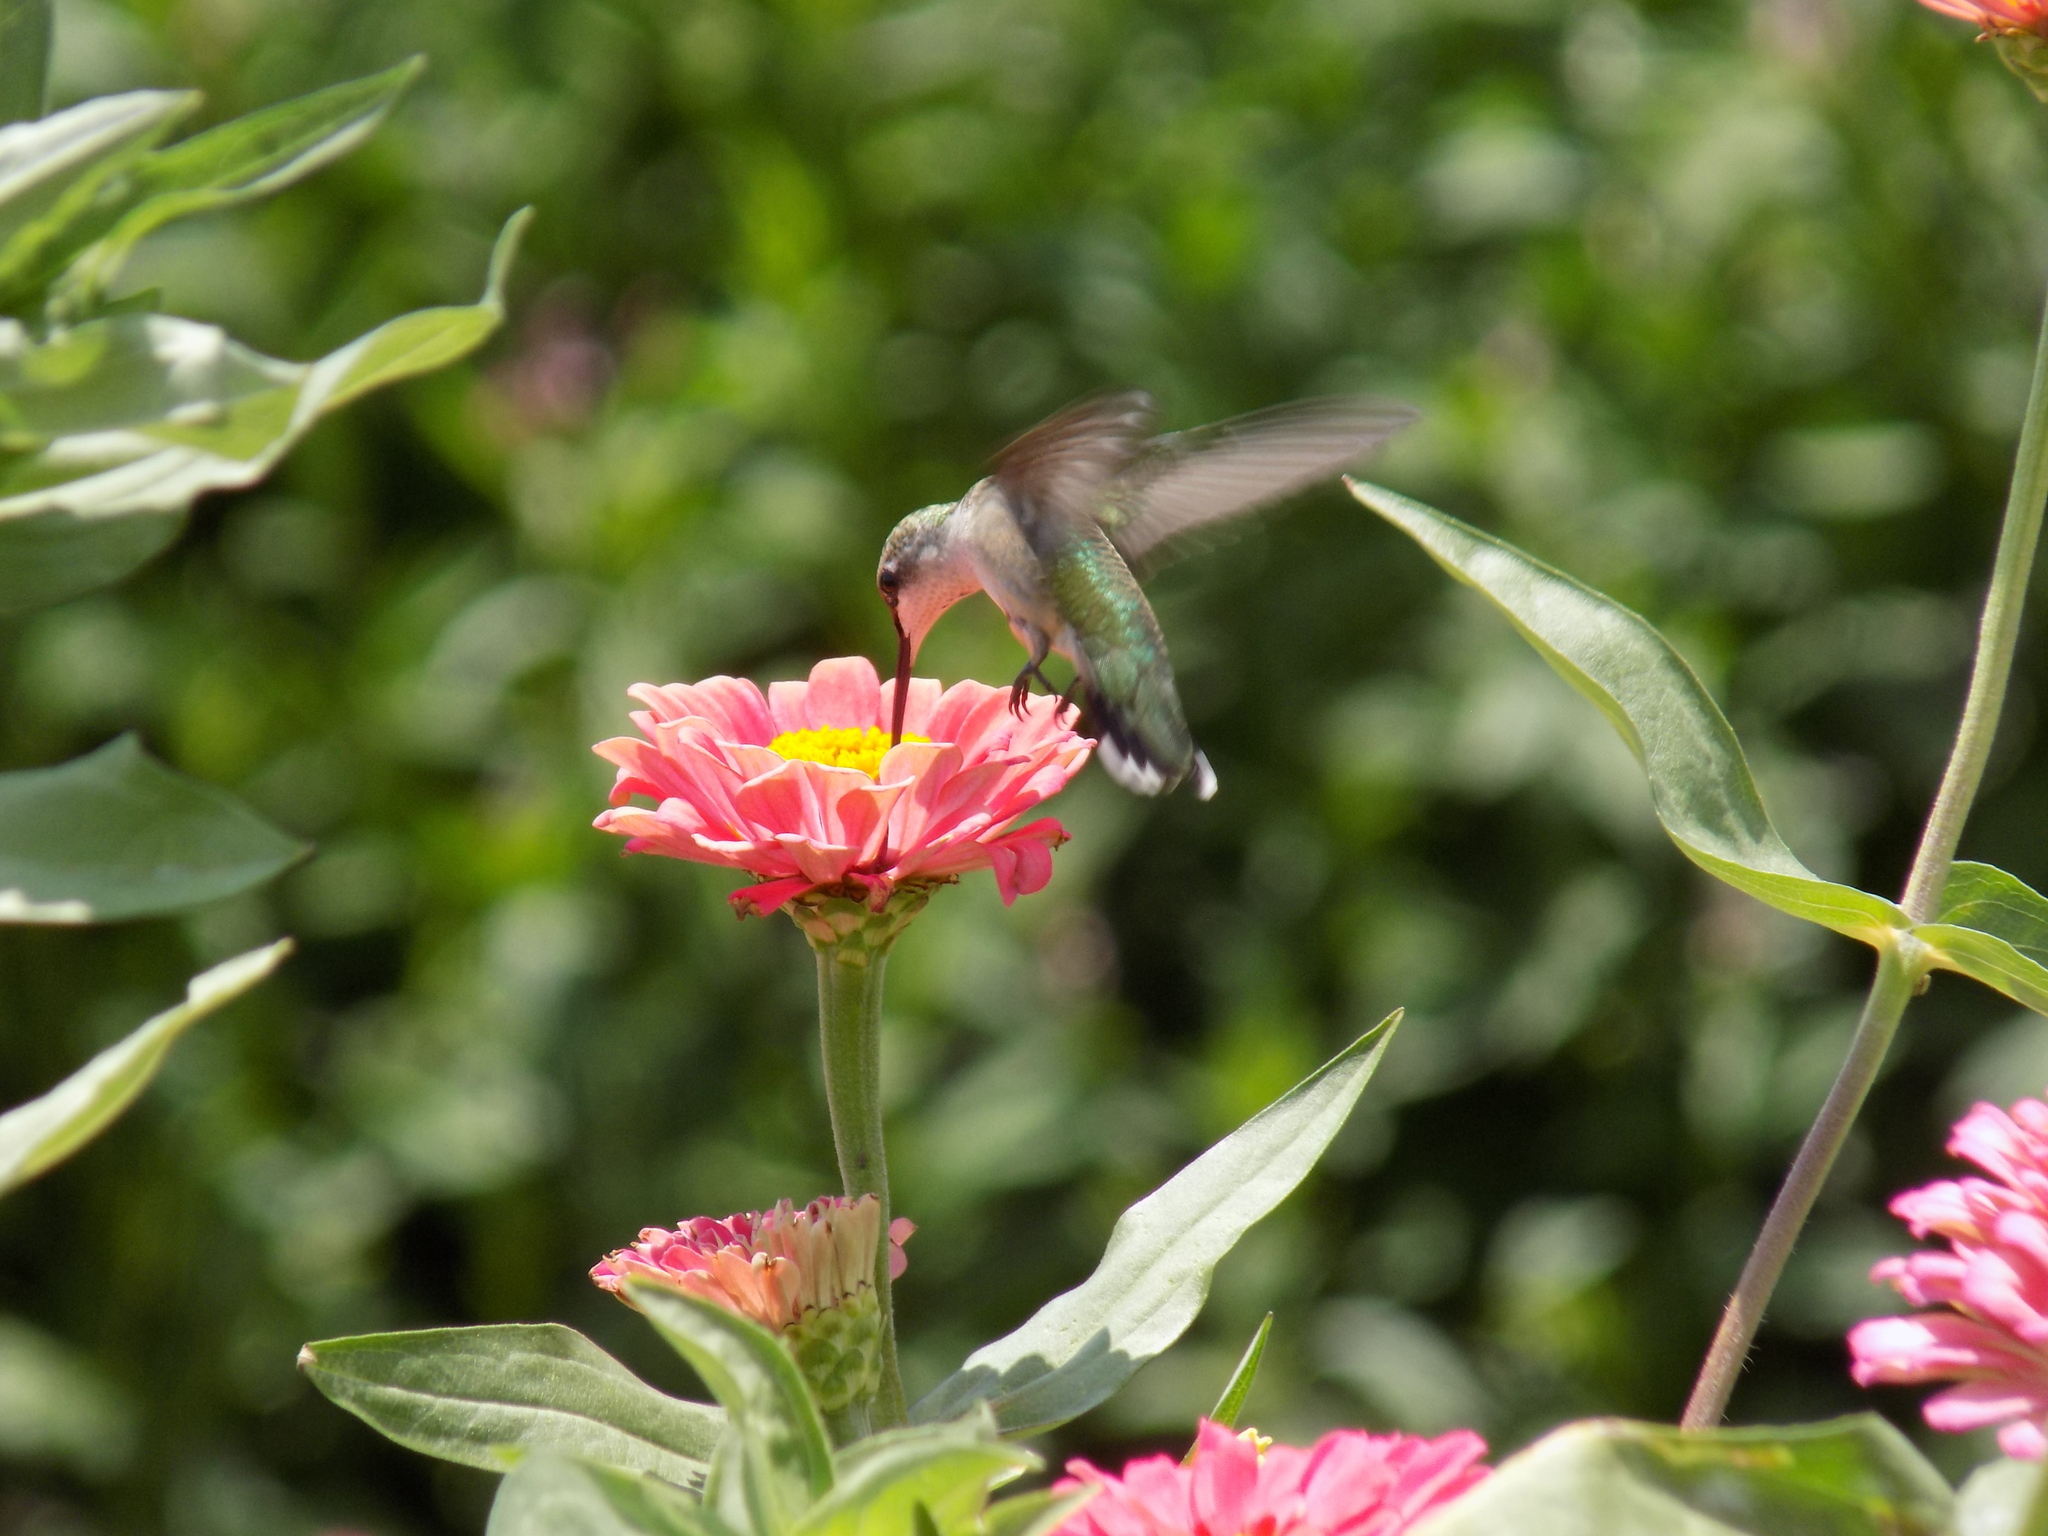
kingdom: Animalia
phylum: Chordata
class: Aves
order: Apodiformes
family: Trochilidae
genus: Archilochus
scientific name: Archilochus colubris
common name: Ruby-throated hummingbird
